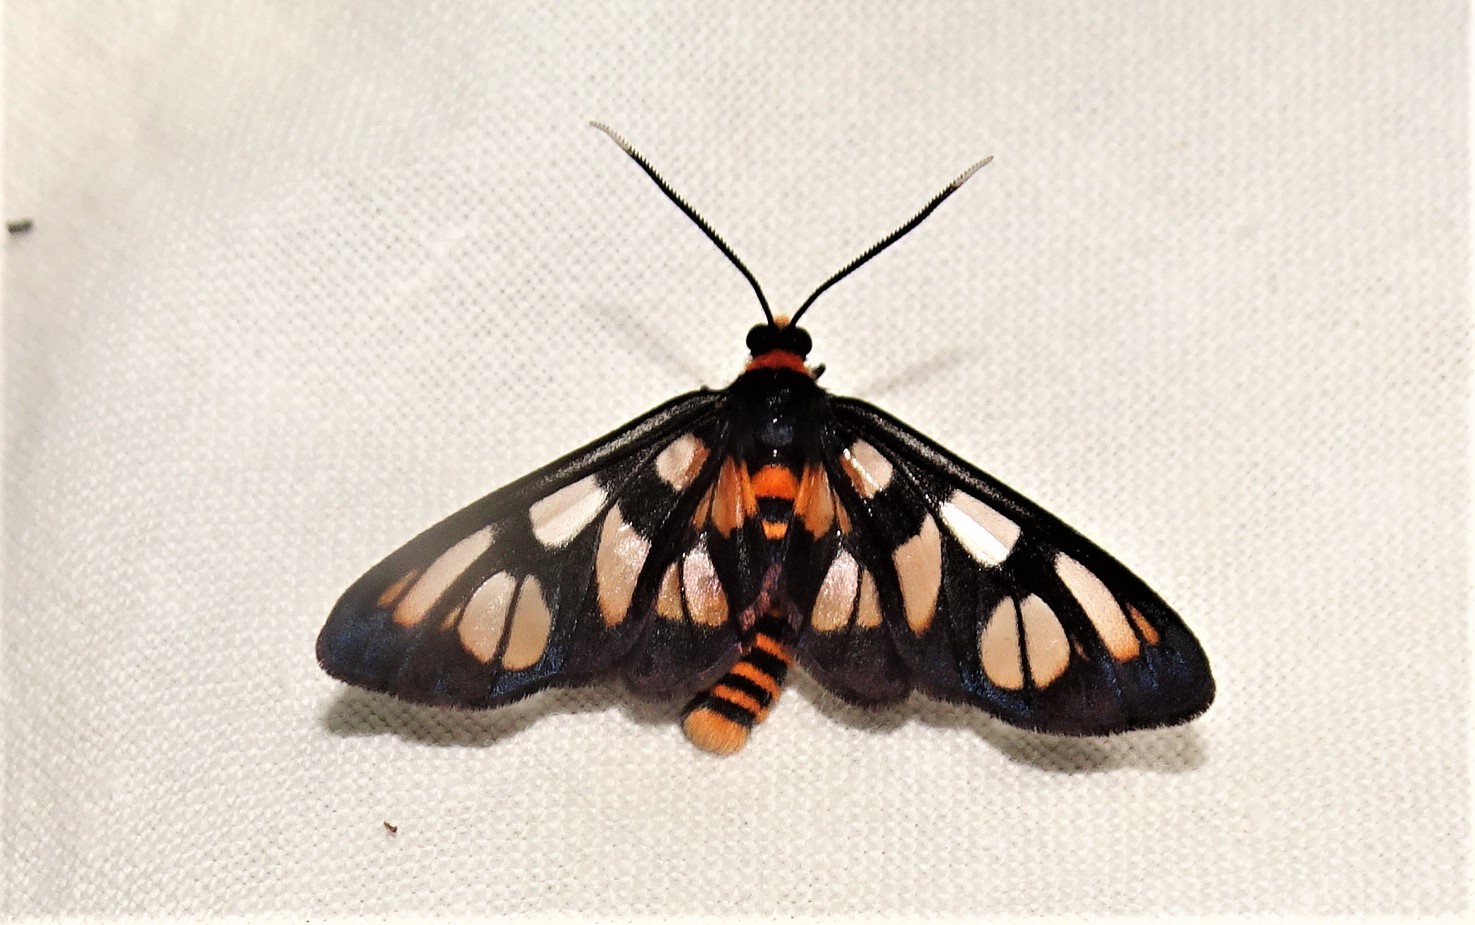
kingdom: Animalia
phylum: Arthropoda
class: Insecta
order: Lepidoptera
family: Erebidae
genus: Amata
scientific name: Amata nigriceps
